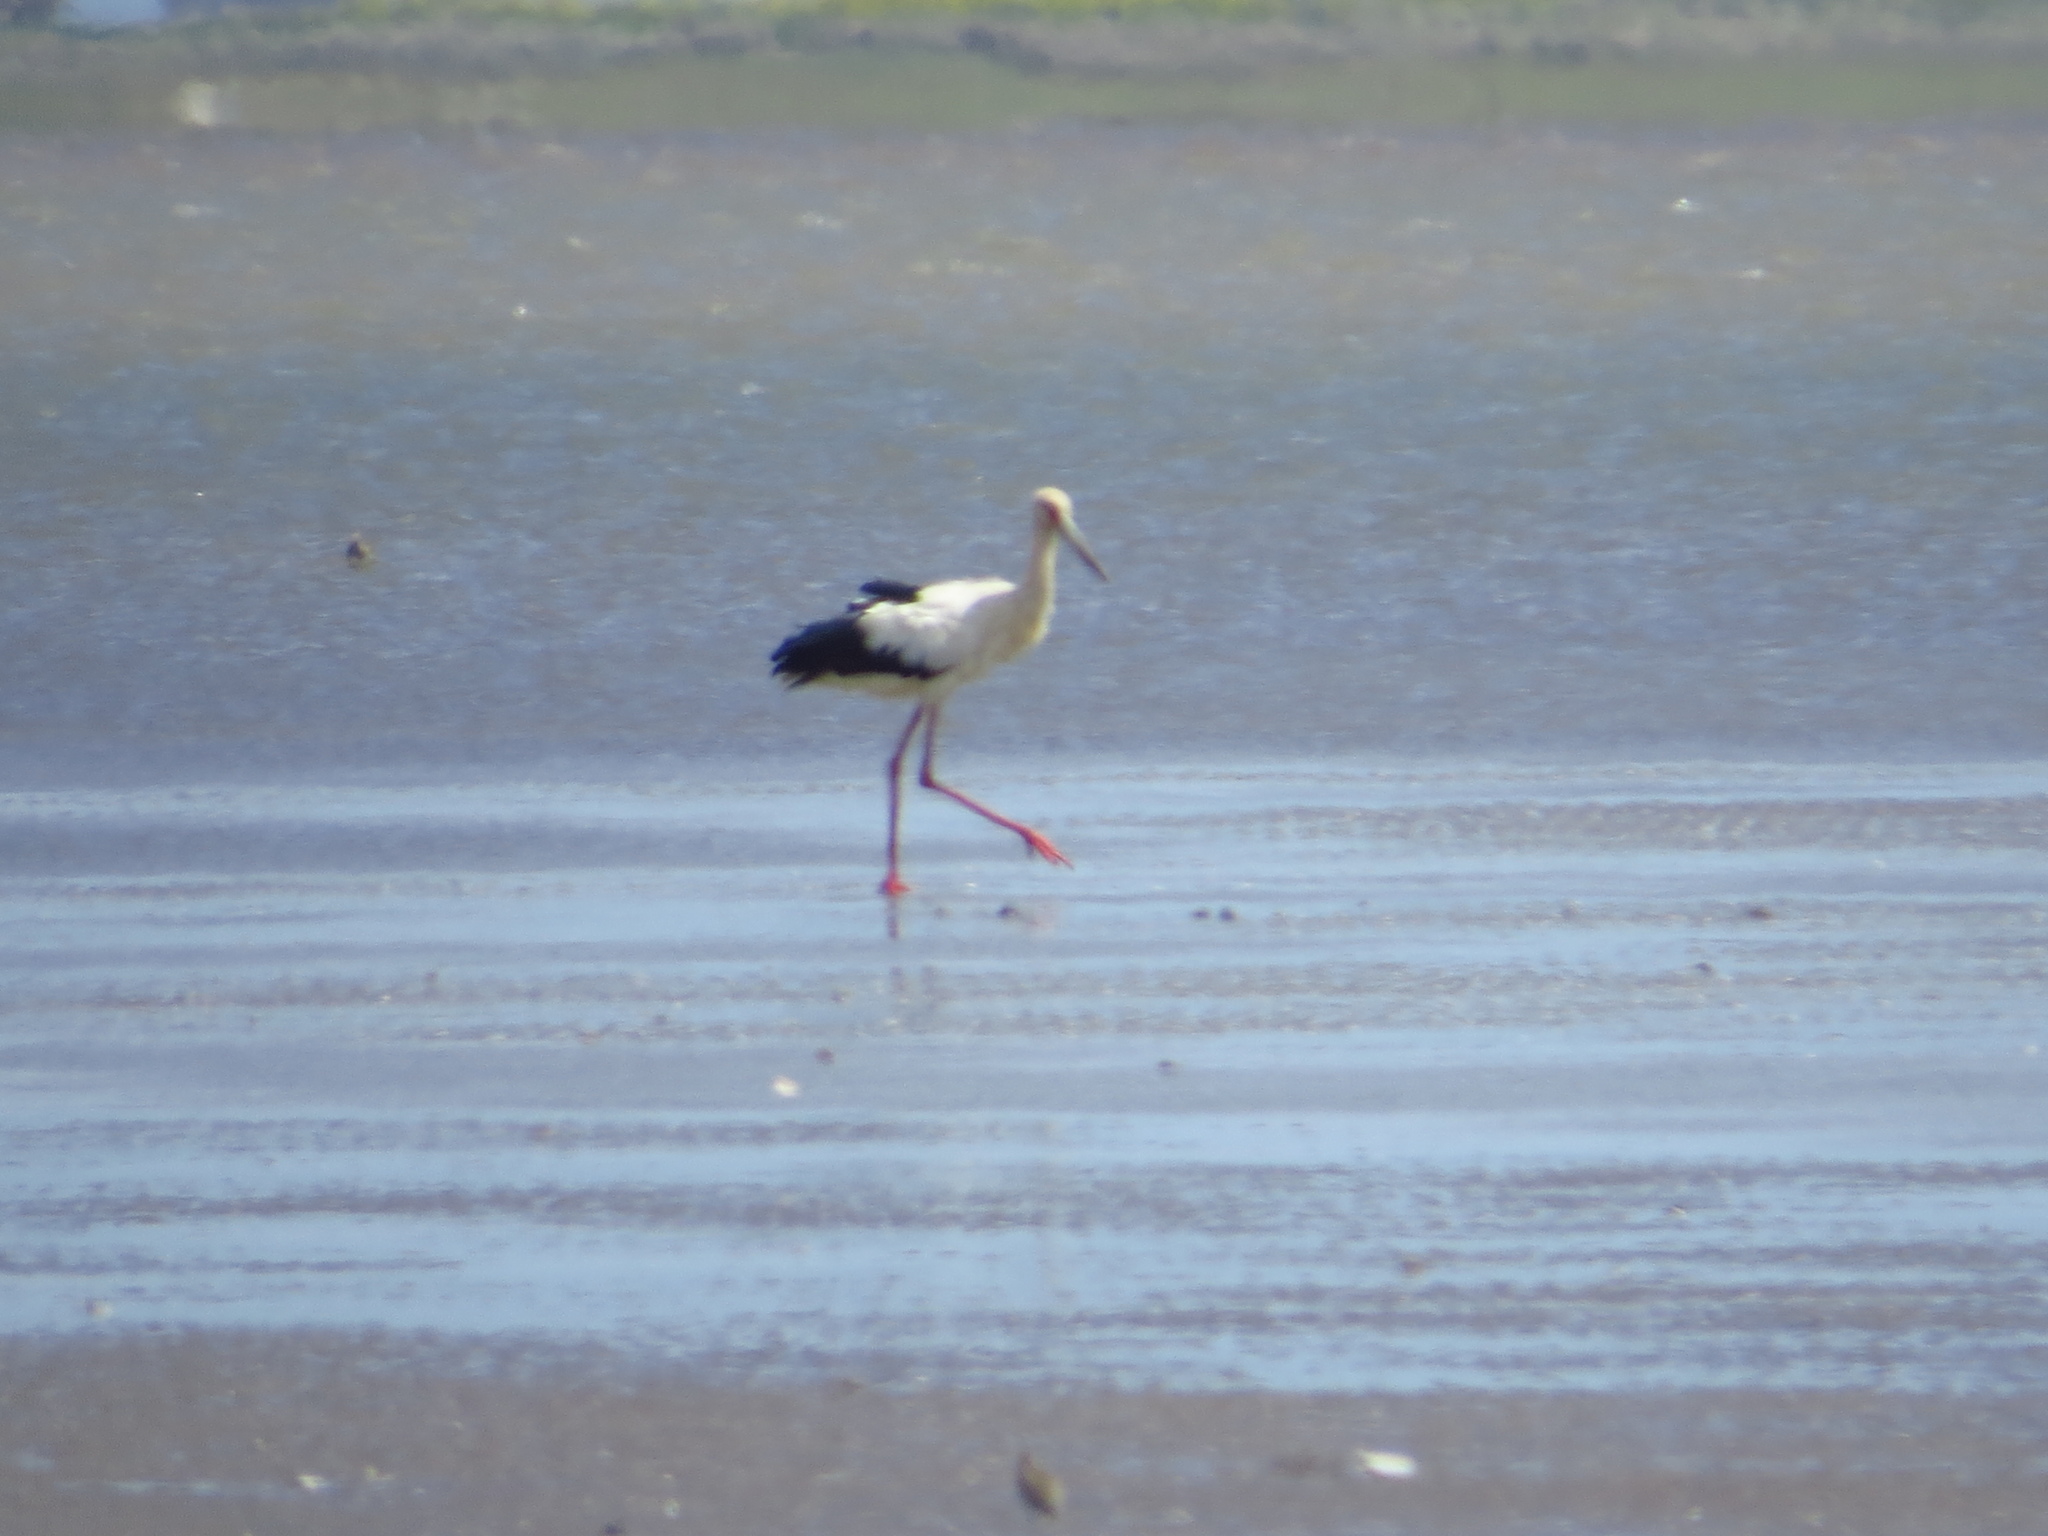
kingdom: Animalia
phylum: Chordata
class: Aves
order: Ciconiiformes
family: Ciconiidae
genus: Ciconia
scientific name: Ciconia maguari
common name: Maguari stork
